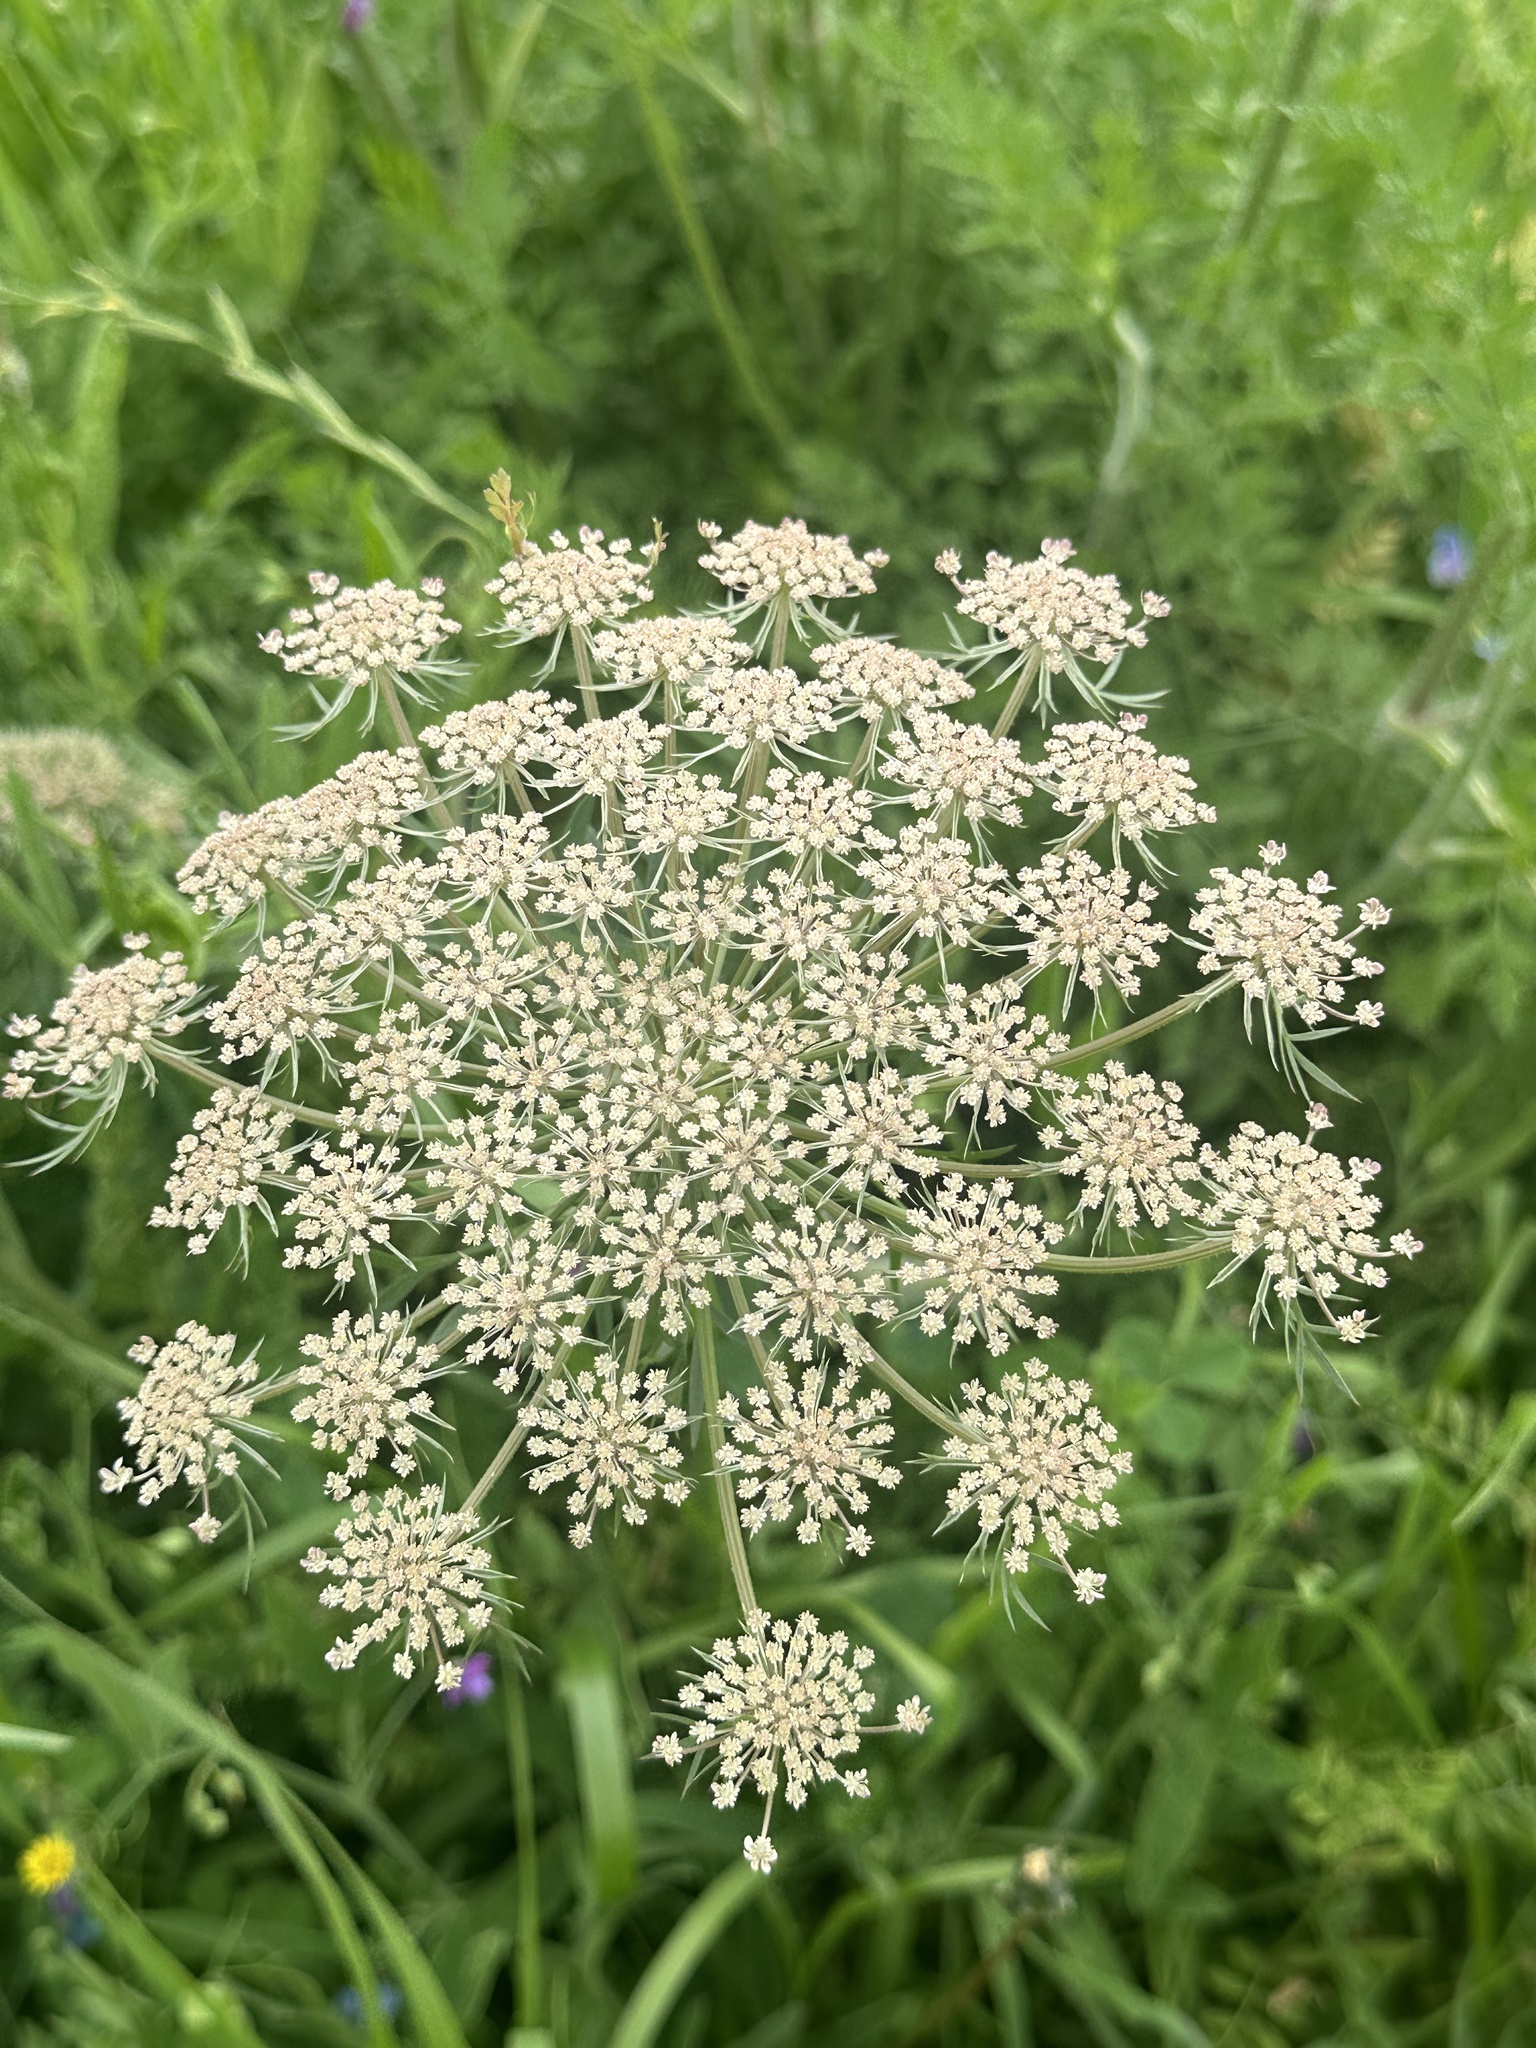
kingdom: Plantae
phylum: Tracheophyta
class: Magnoliopsida
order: Apiales
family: Apiaceae
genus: Daucus
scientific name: Daucus carota
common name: Wild carrot
